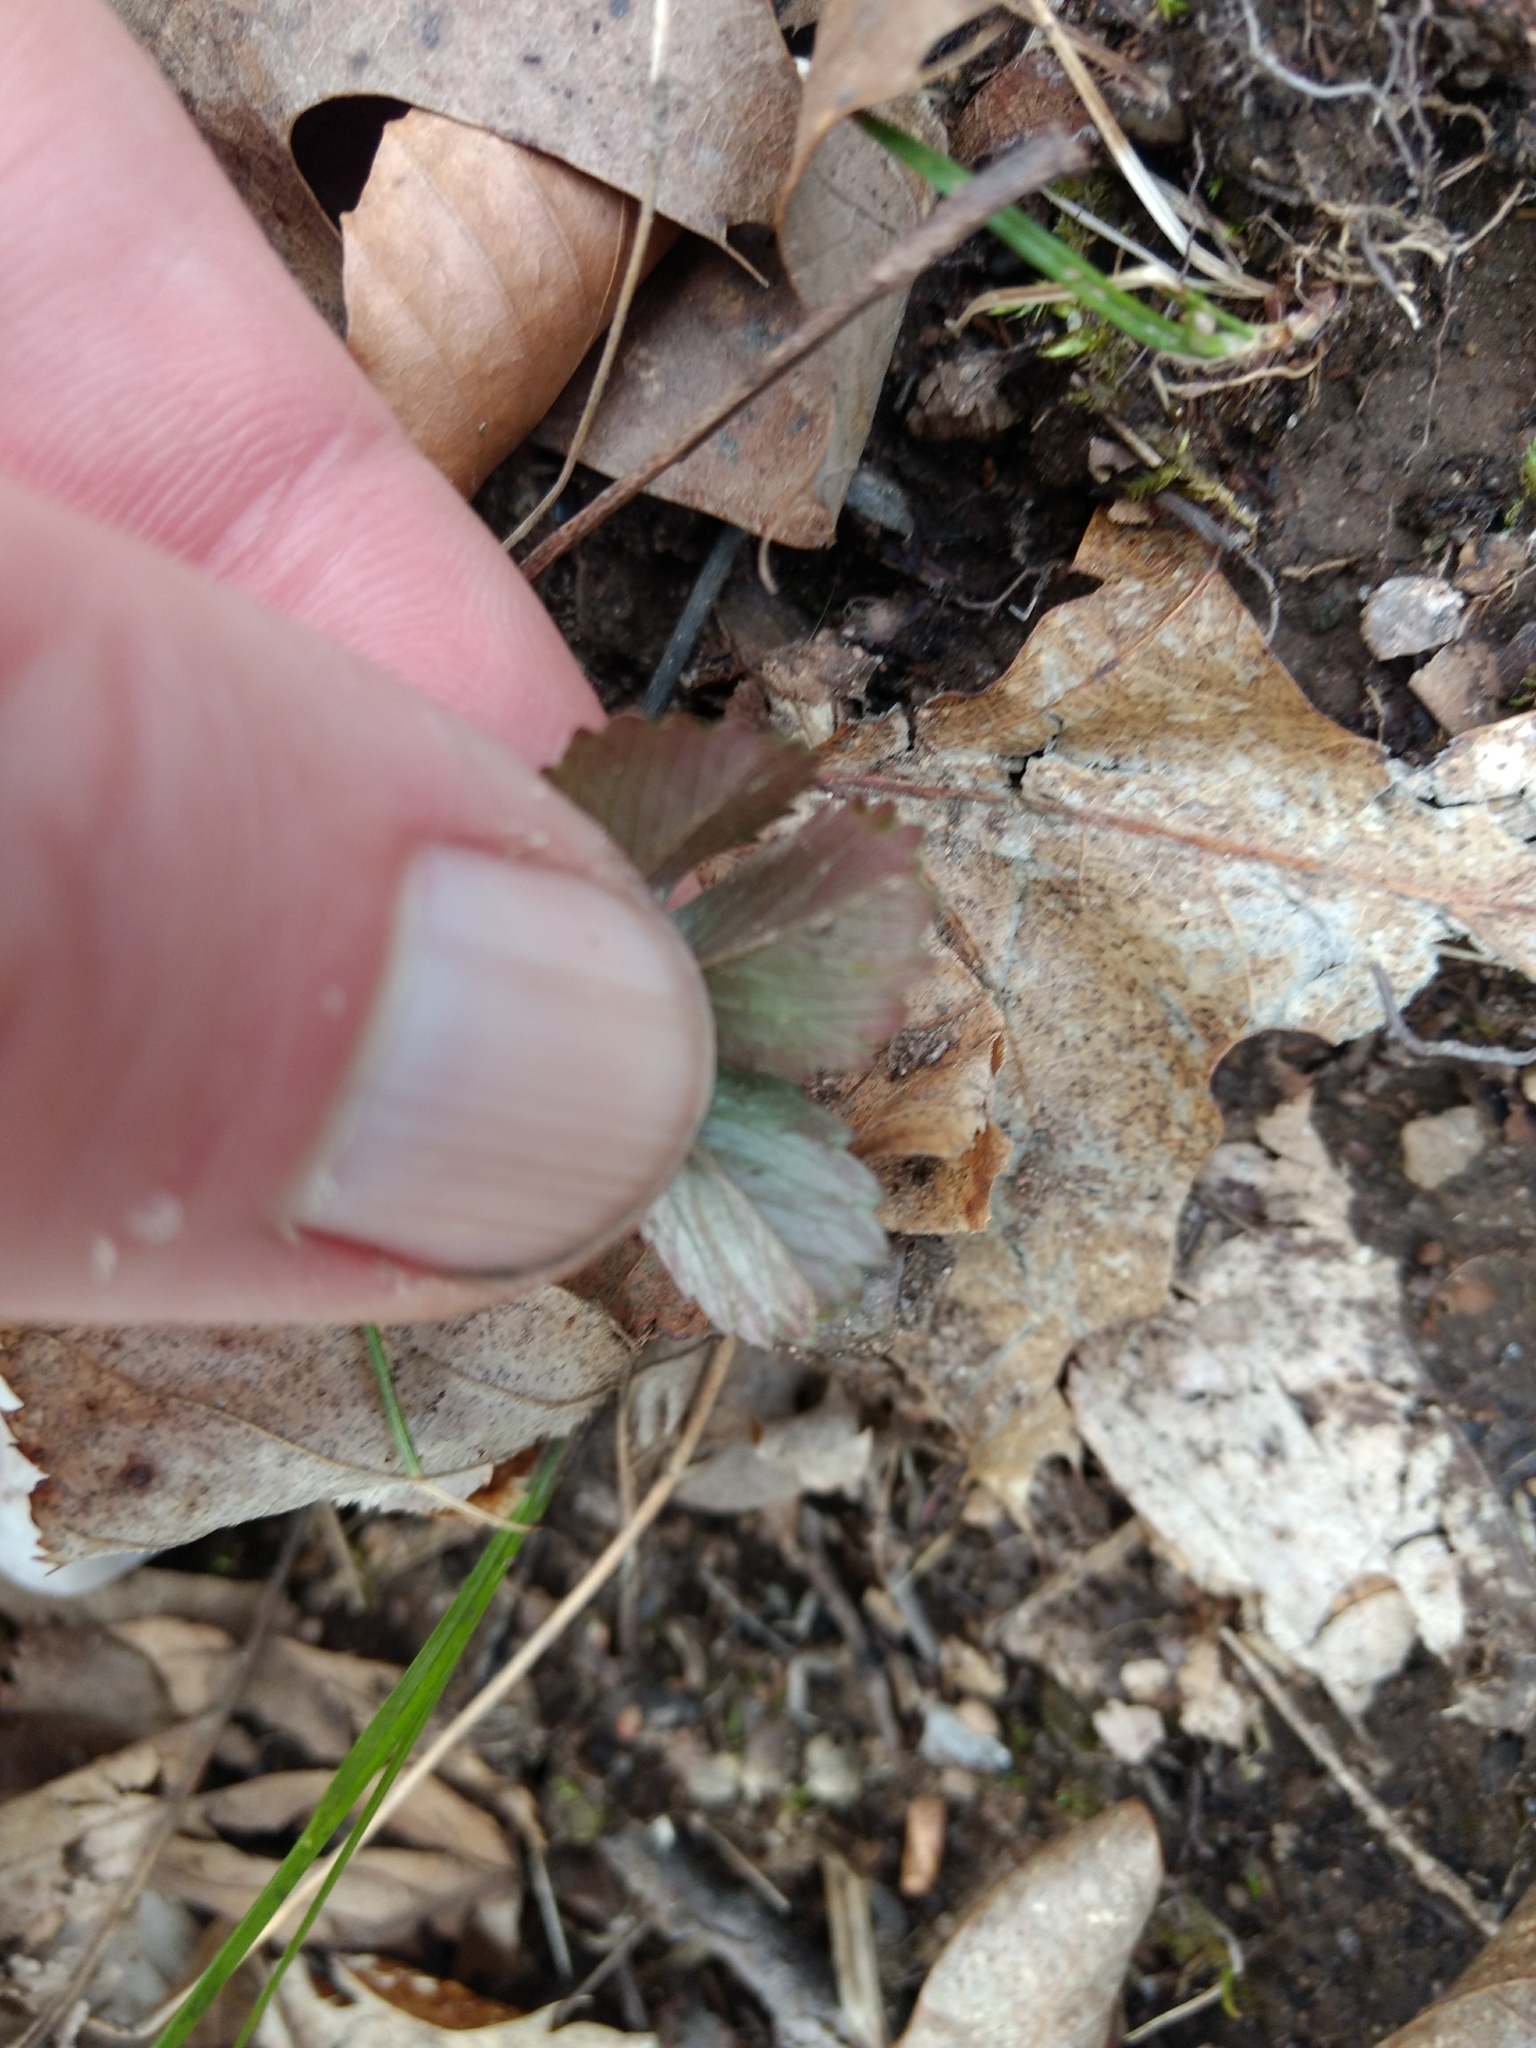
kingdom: Plantae
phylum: Tracheophyta
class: Magnoliopsida
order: Rosales
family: Rosaceae
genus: Potentilla
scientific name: Potentilla canadensis
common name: Canada cinquefoil
